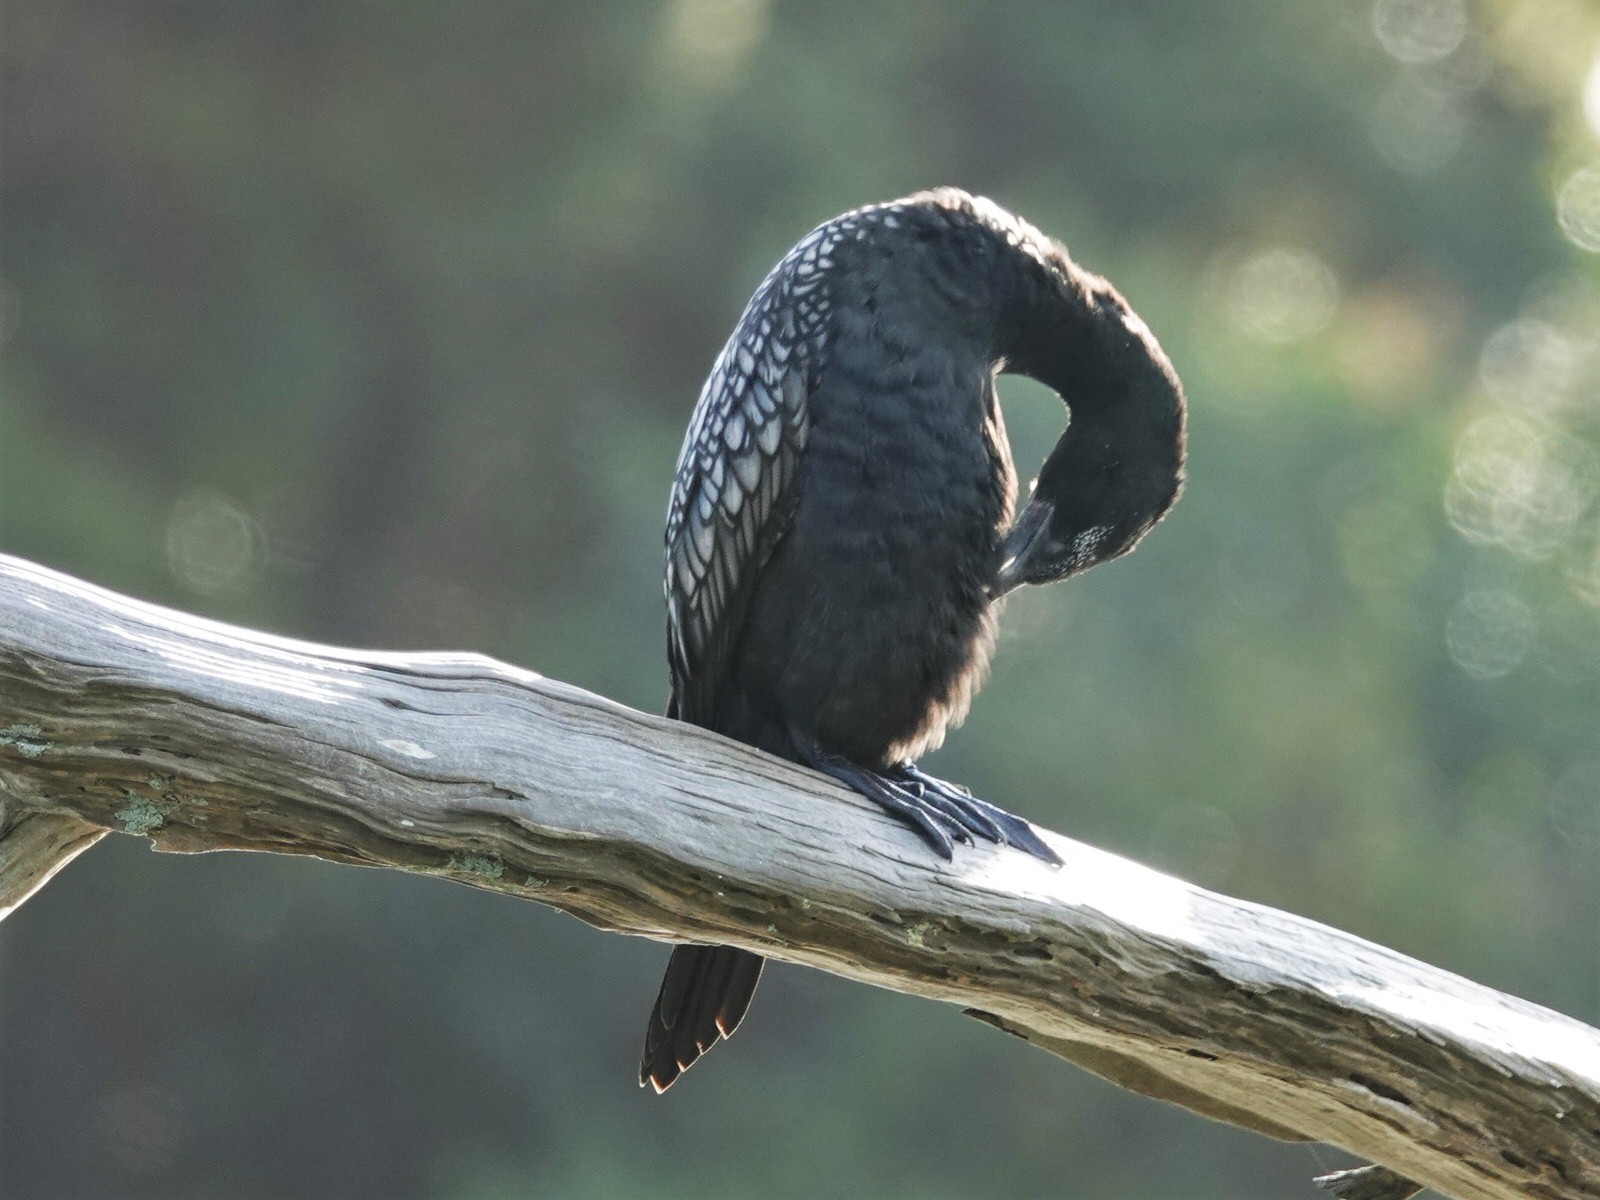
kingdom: Animalia
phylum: Chordata
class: Aves
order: Suliformes
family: Phalacrocoracidae
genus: Phalacrocorax
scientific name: Phalacrocorax sulcirostris
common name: Little black cormorant
